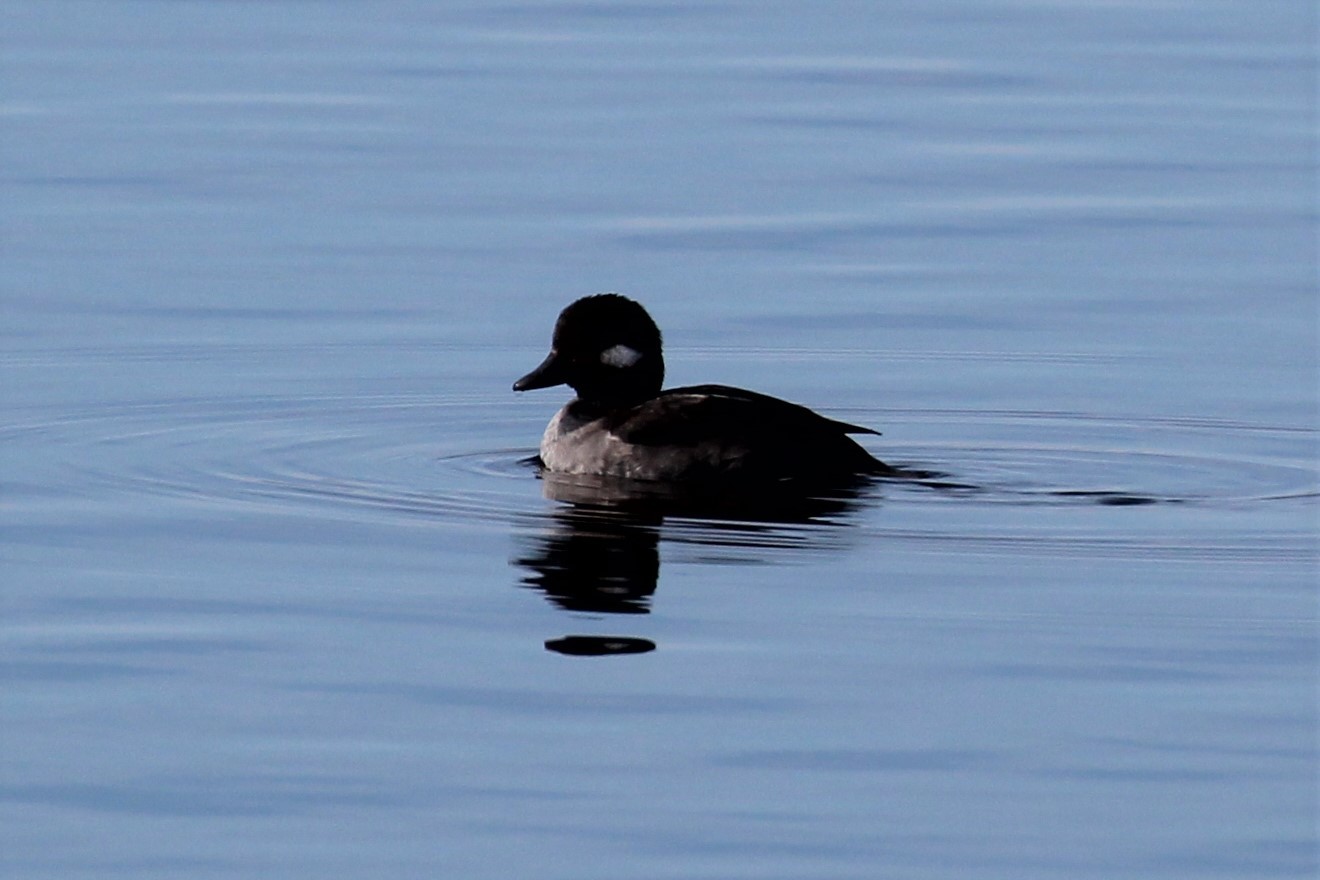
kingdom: Animalia
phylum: Chordata
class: Aves
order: Anseriformes
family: Anatidae
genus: Bucephala
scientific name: Bucephala albeola
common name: Bufflehead
